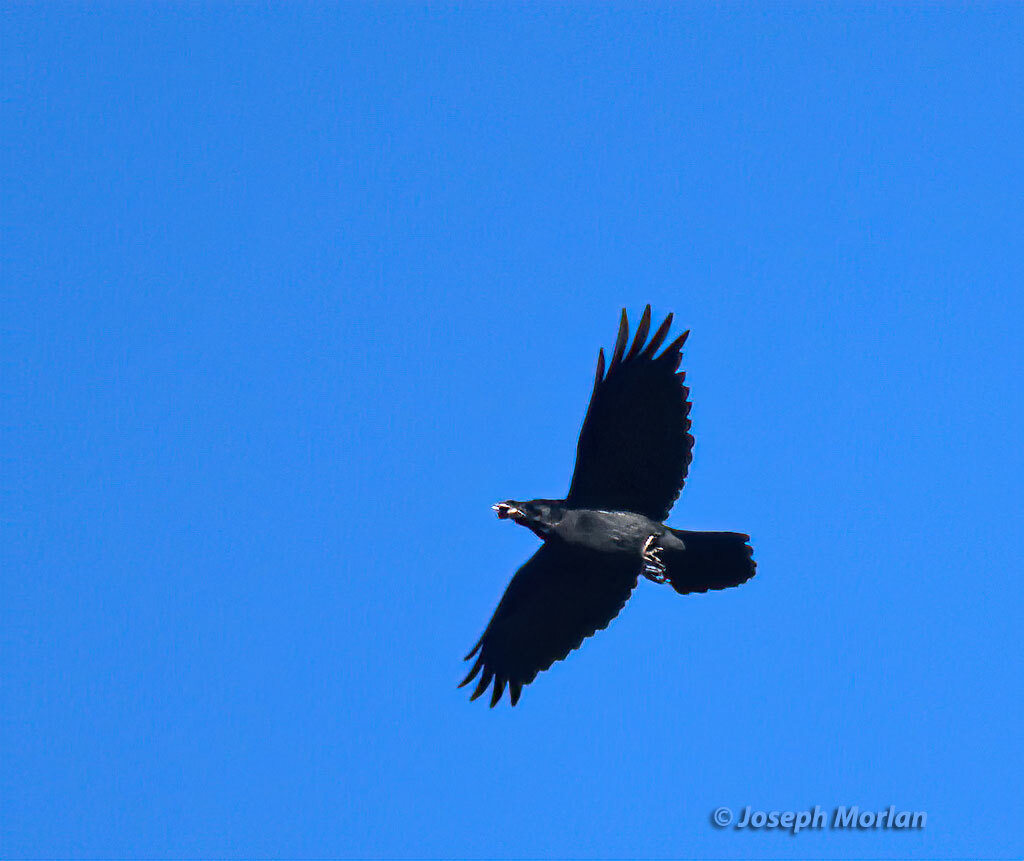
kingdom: Animalia
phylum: Chordata
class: Aves
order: Passeriformes
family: Corvidae
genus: Corvus
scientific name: Corvus corax
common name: Common raven
